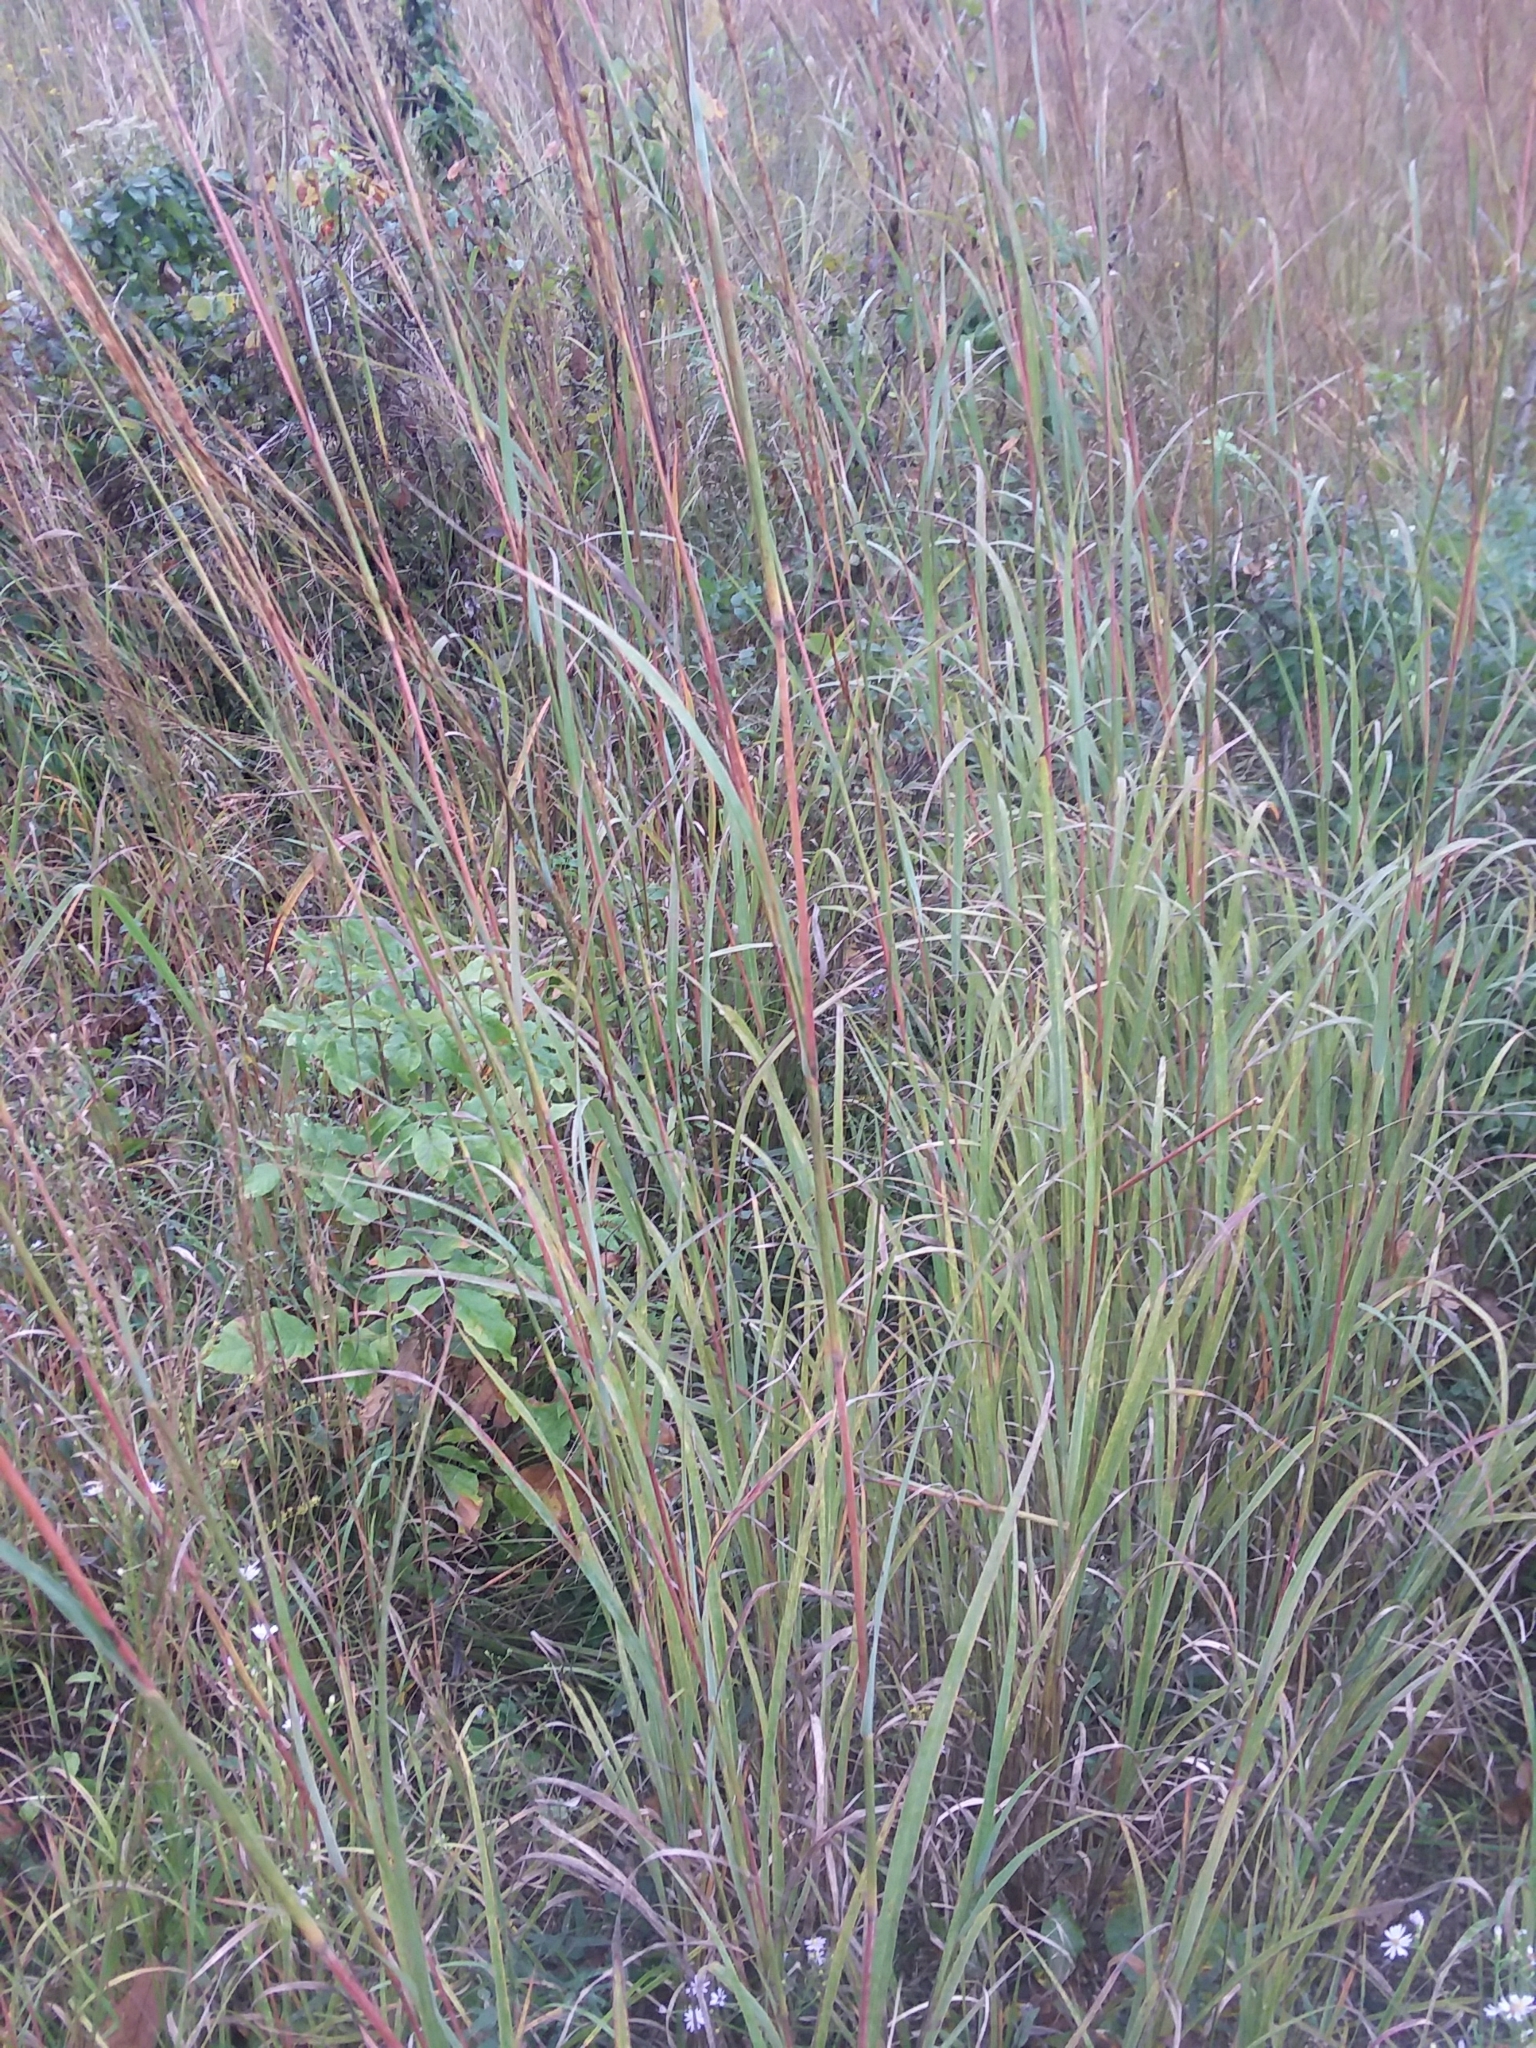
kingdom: Plantae
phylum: Tracheophyta
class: Liliopsida
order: Poales
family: Poaceae
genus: Andropogon
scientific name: Andropogon gerardi
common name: Big bluestem
